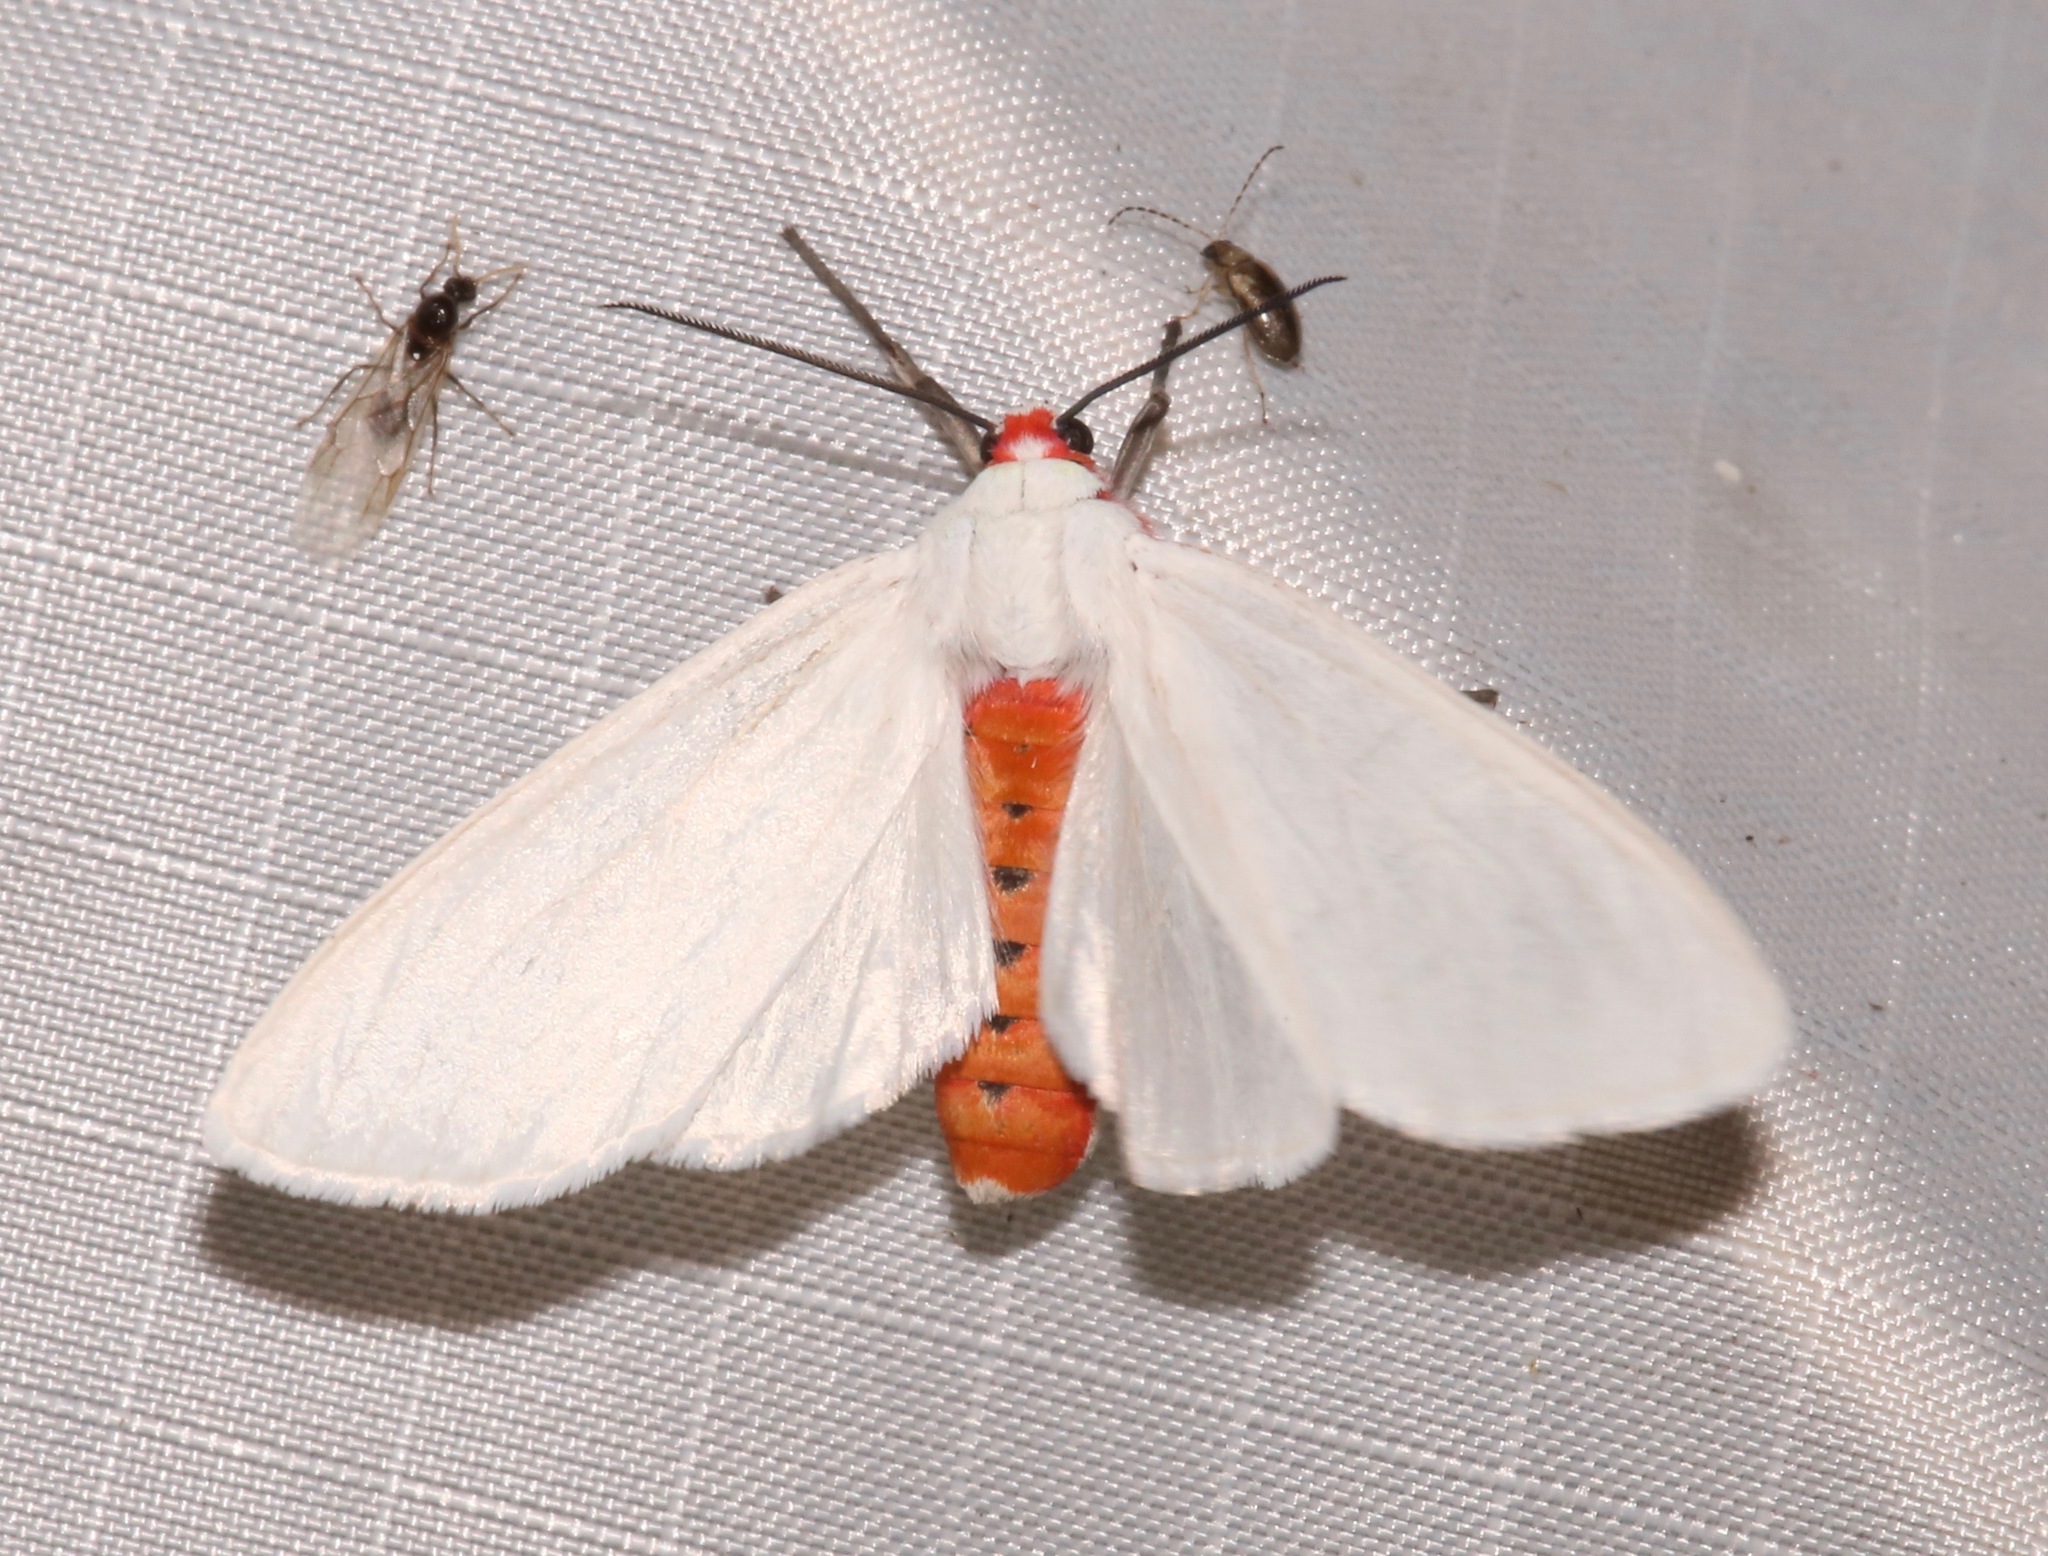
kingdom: Animalia
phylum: Arthropoda
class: Insecta
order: Lepidoptera
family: Erebidae
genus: Pygarctia
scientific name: Pygarctia roseicapitis
